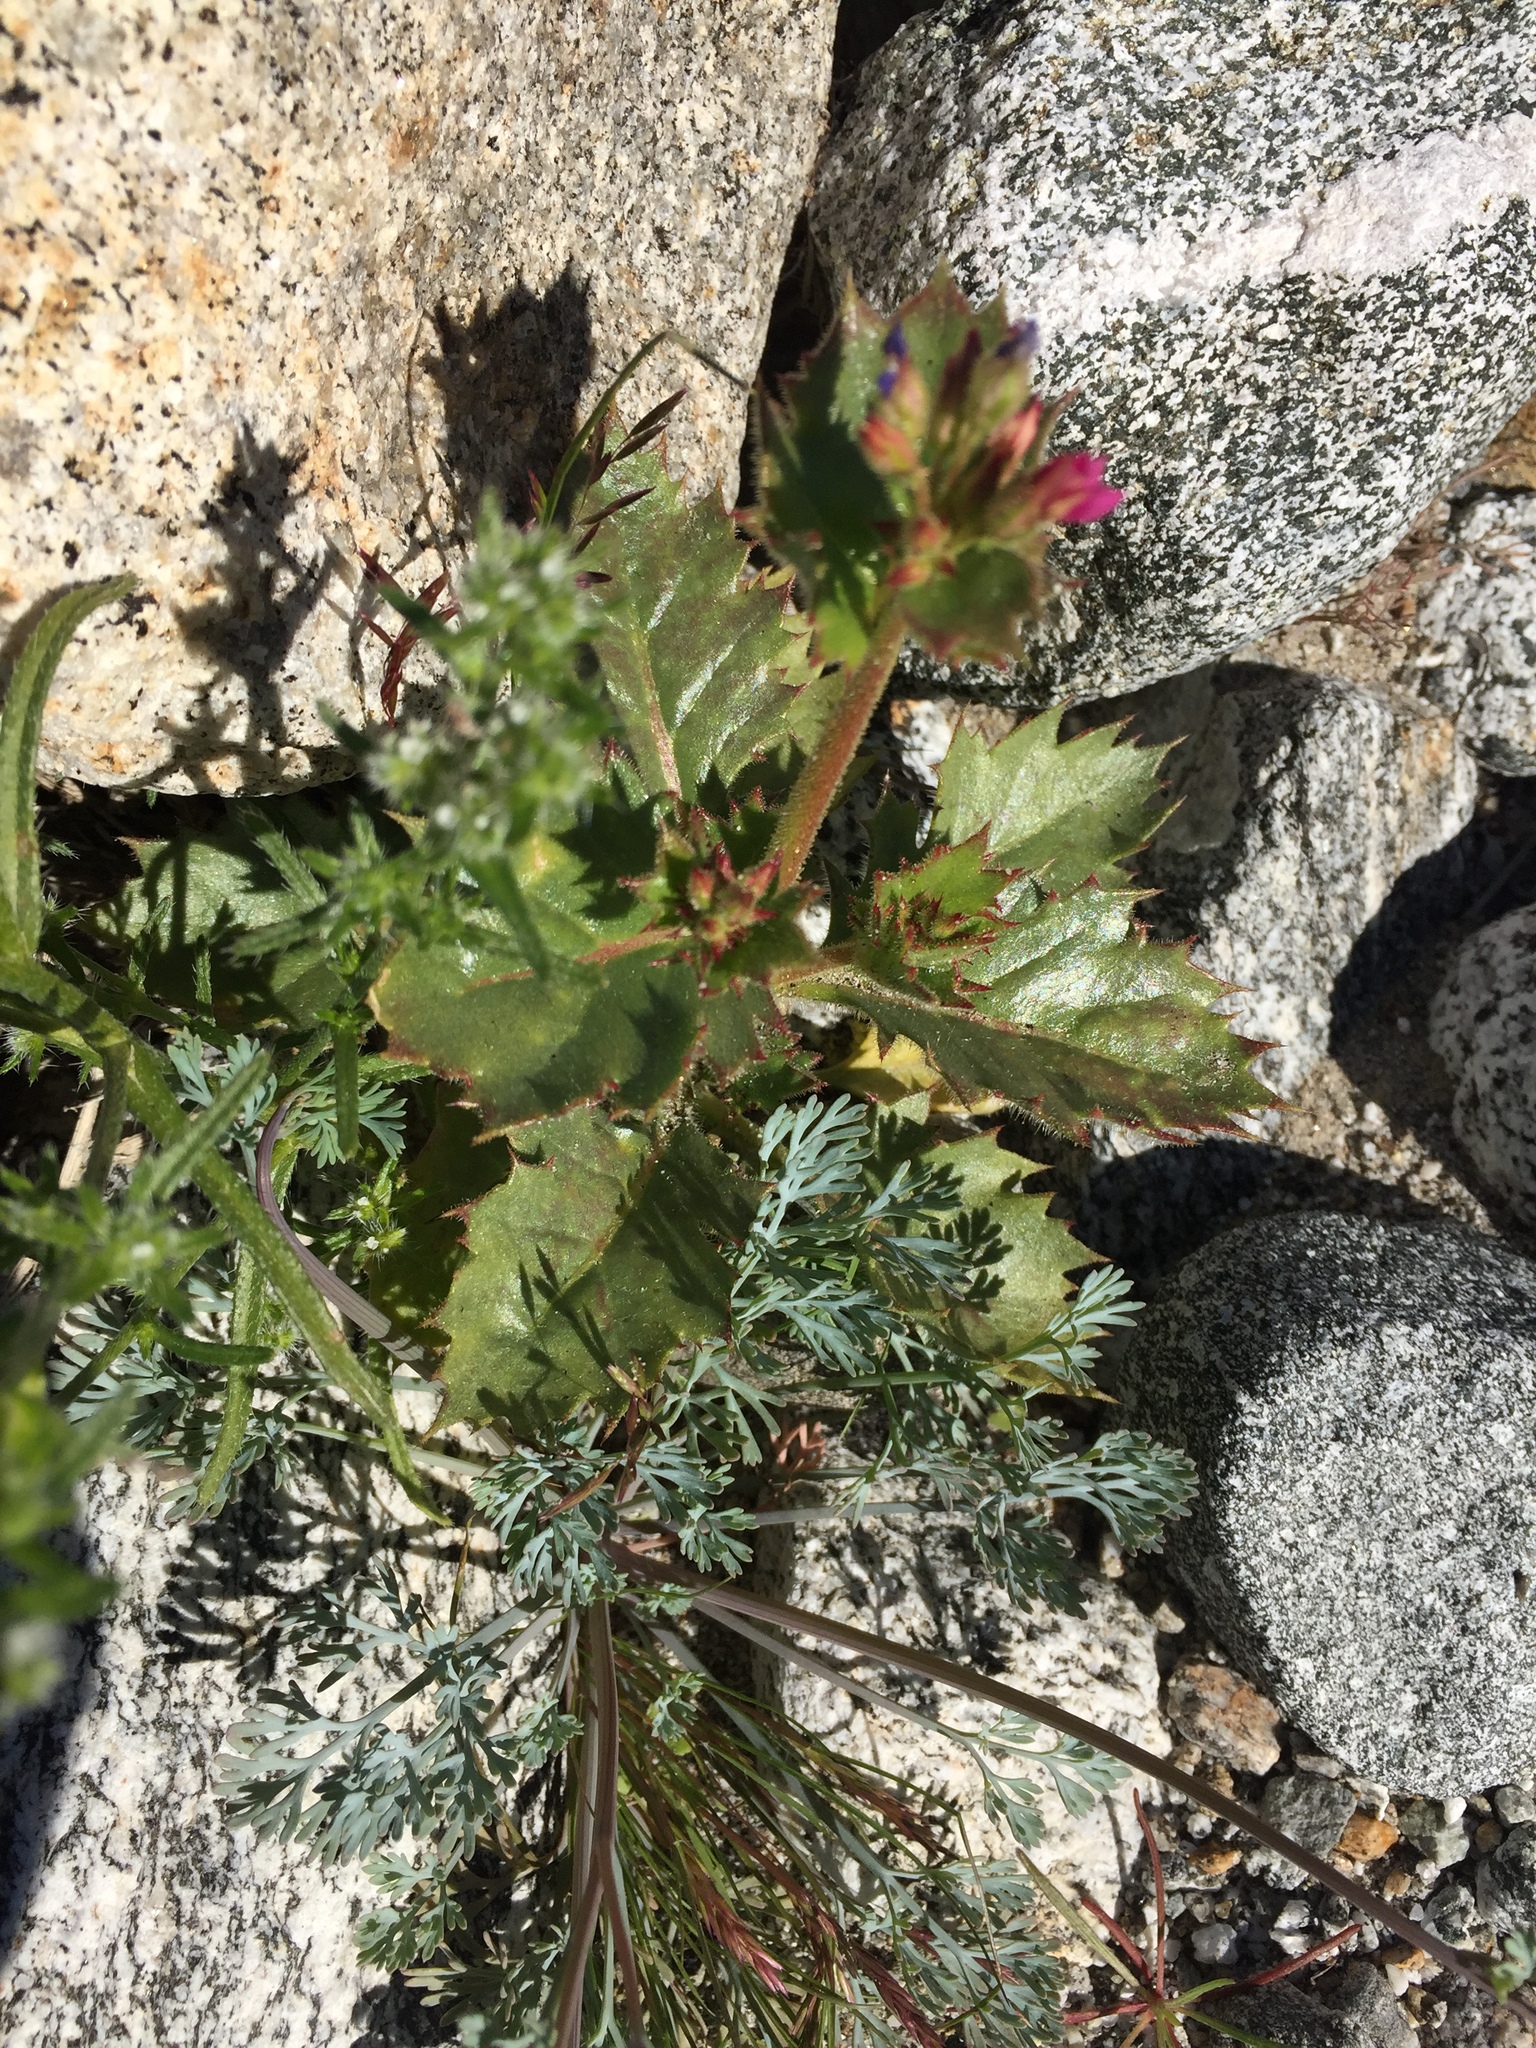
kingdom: Plantae
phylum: Tracheophyta
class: Magnoliopsida
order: Ericales
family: Polemoniaceae
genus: Aliciella
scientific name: Aliciella latifolia
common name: Broad-leaf gilia
